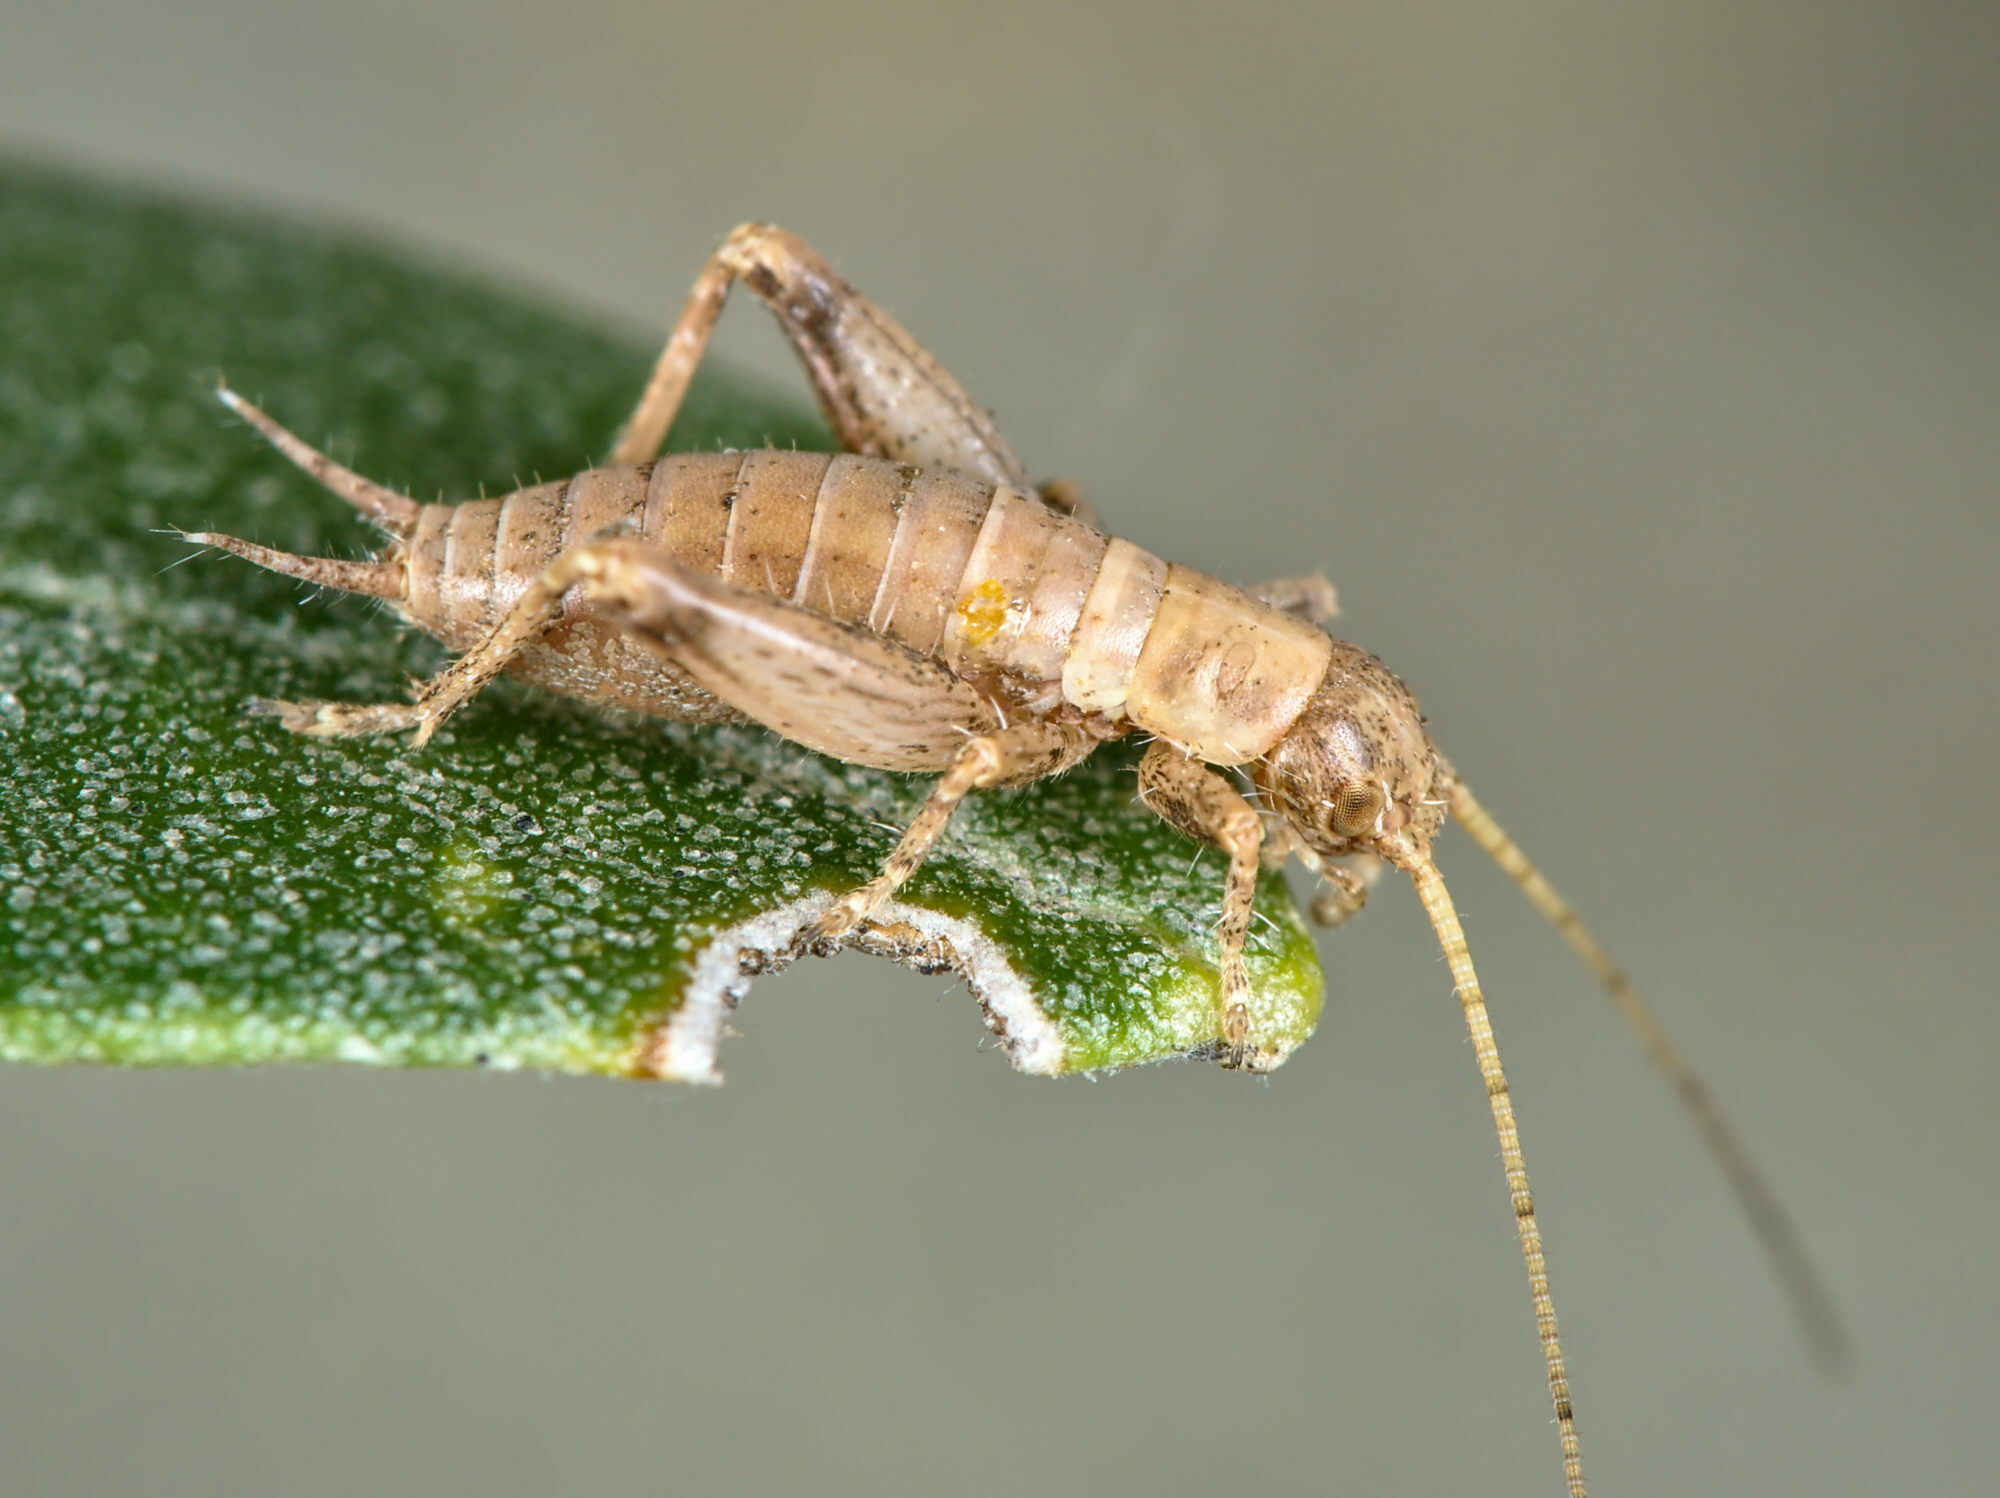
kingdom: Animalia
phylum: Arthropoda
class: Insecta
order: Orthoptera
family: Mogoplistidae
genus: Arachnocephalus
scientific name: Arachnocephalus vestitus
